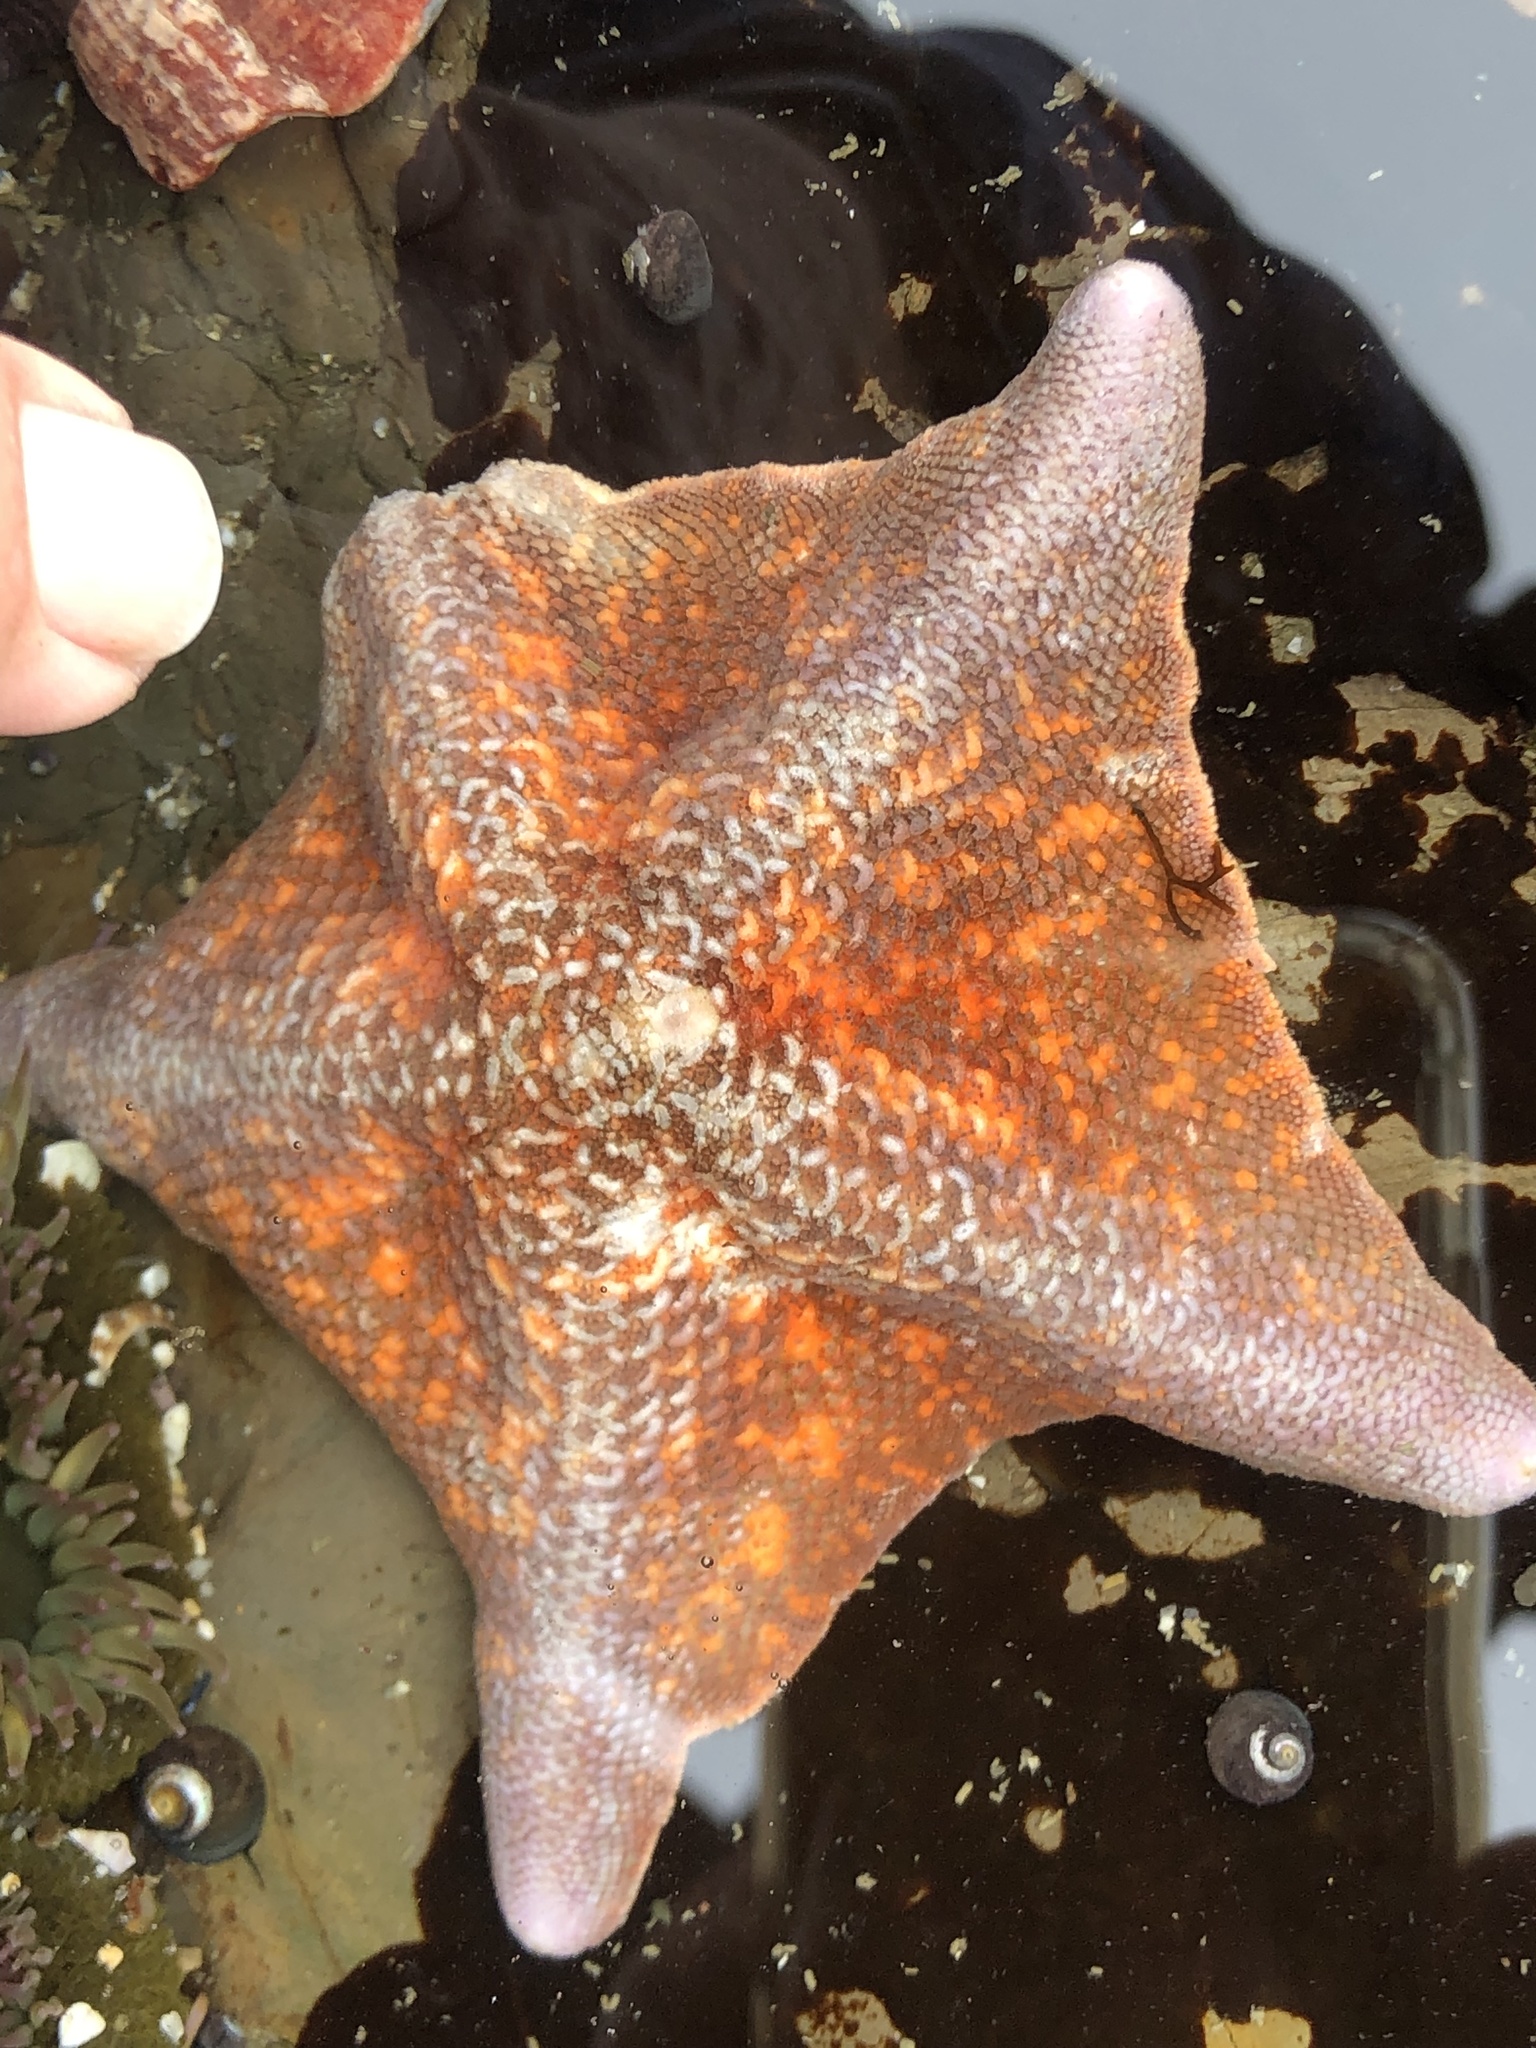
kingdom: Animalia
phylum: Echinodermata
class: Asteroidea
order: Valvatida
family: Asterinidae
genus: Patiria
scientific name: Patiria miniata
